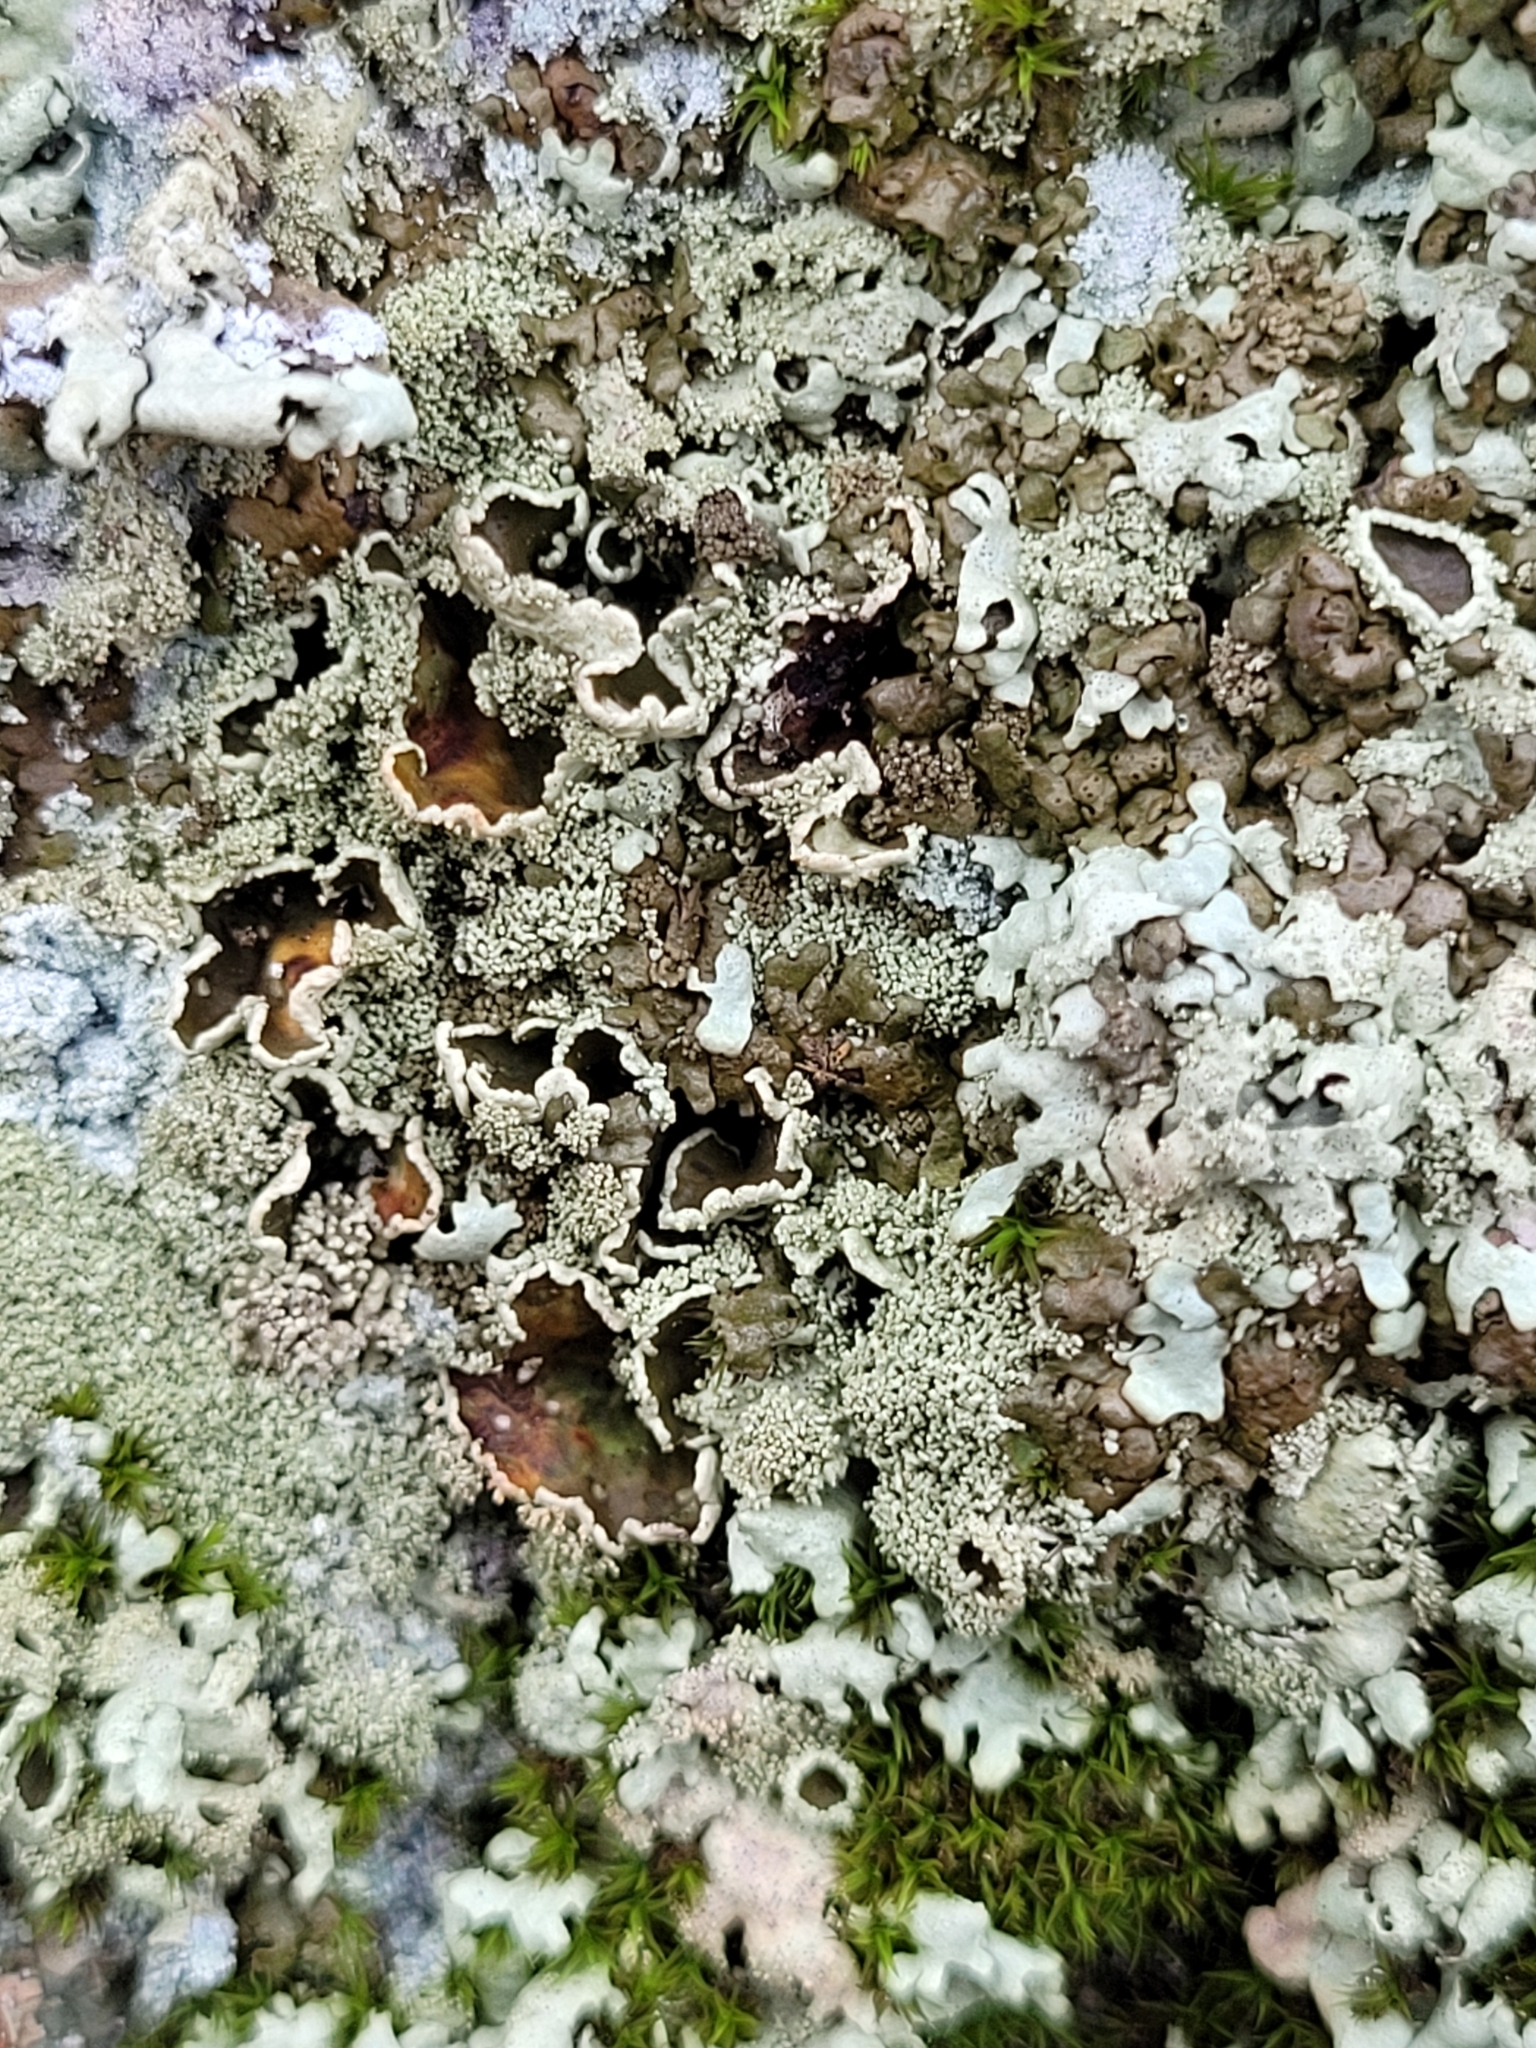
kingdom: Fungi
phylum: Ascomycota
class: Lecanoromycetes
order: Lecanorales
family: Parmeliaceae
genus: Xanthoparmelia
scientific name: Xanthoparmelia conspersa
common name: Peppered rock shield
